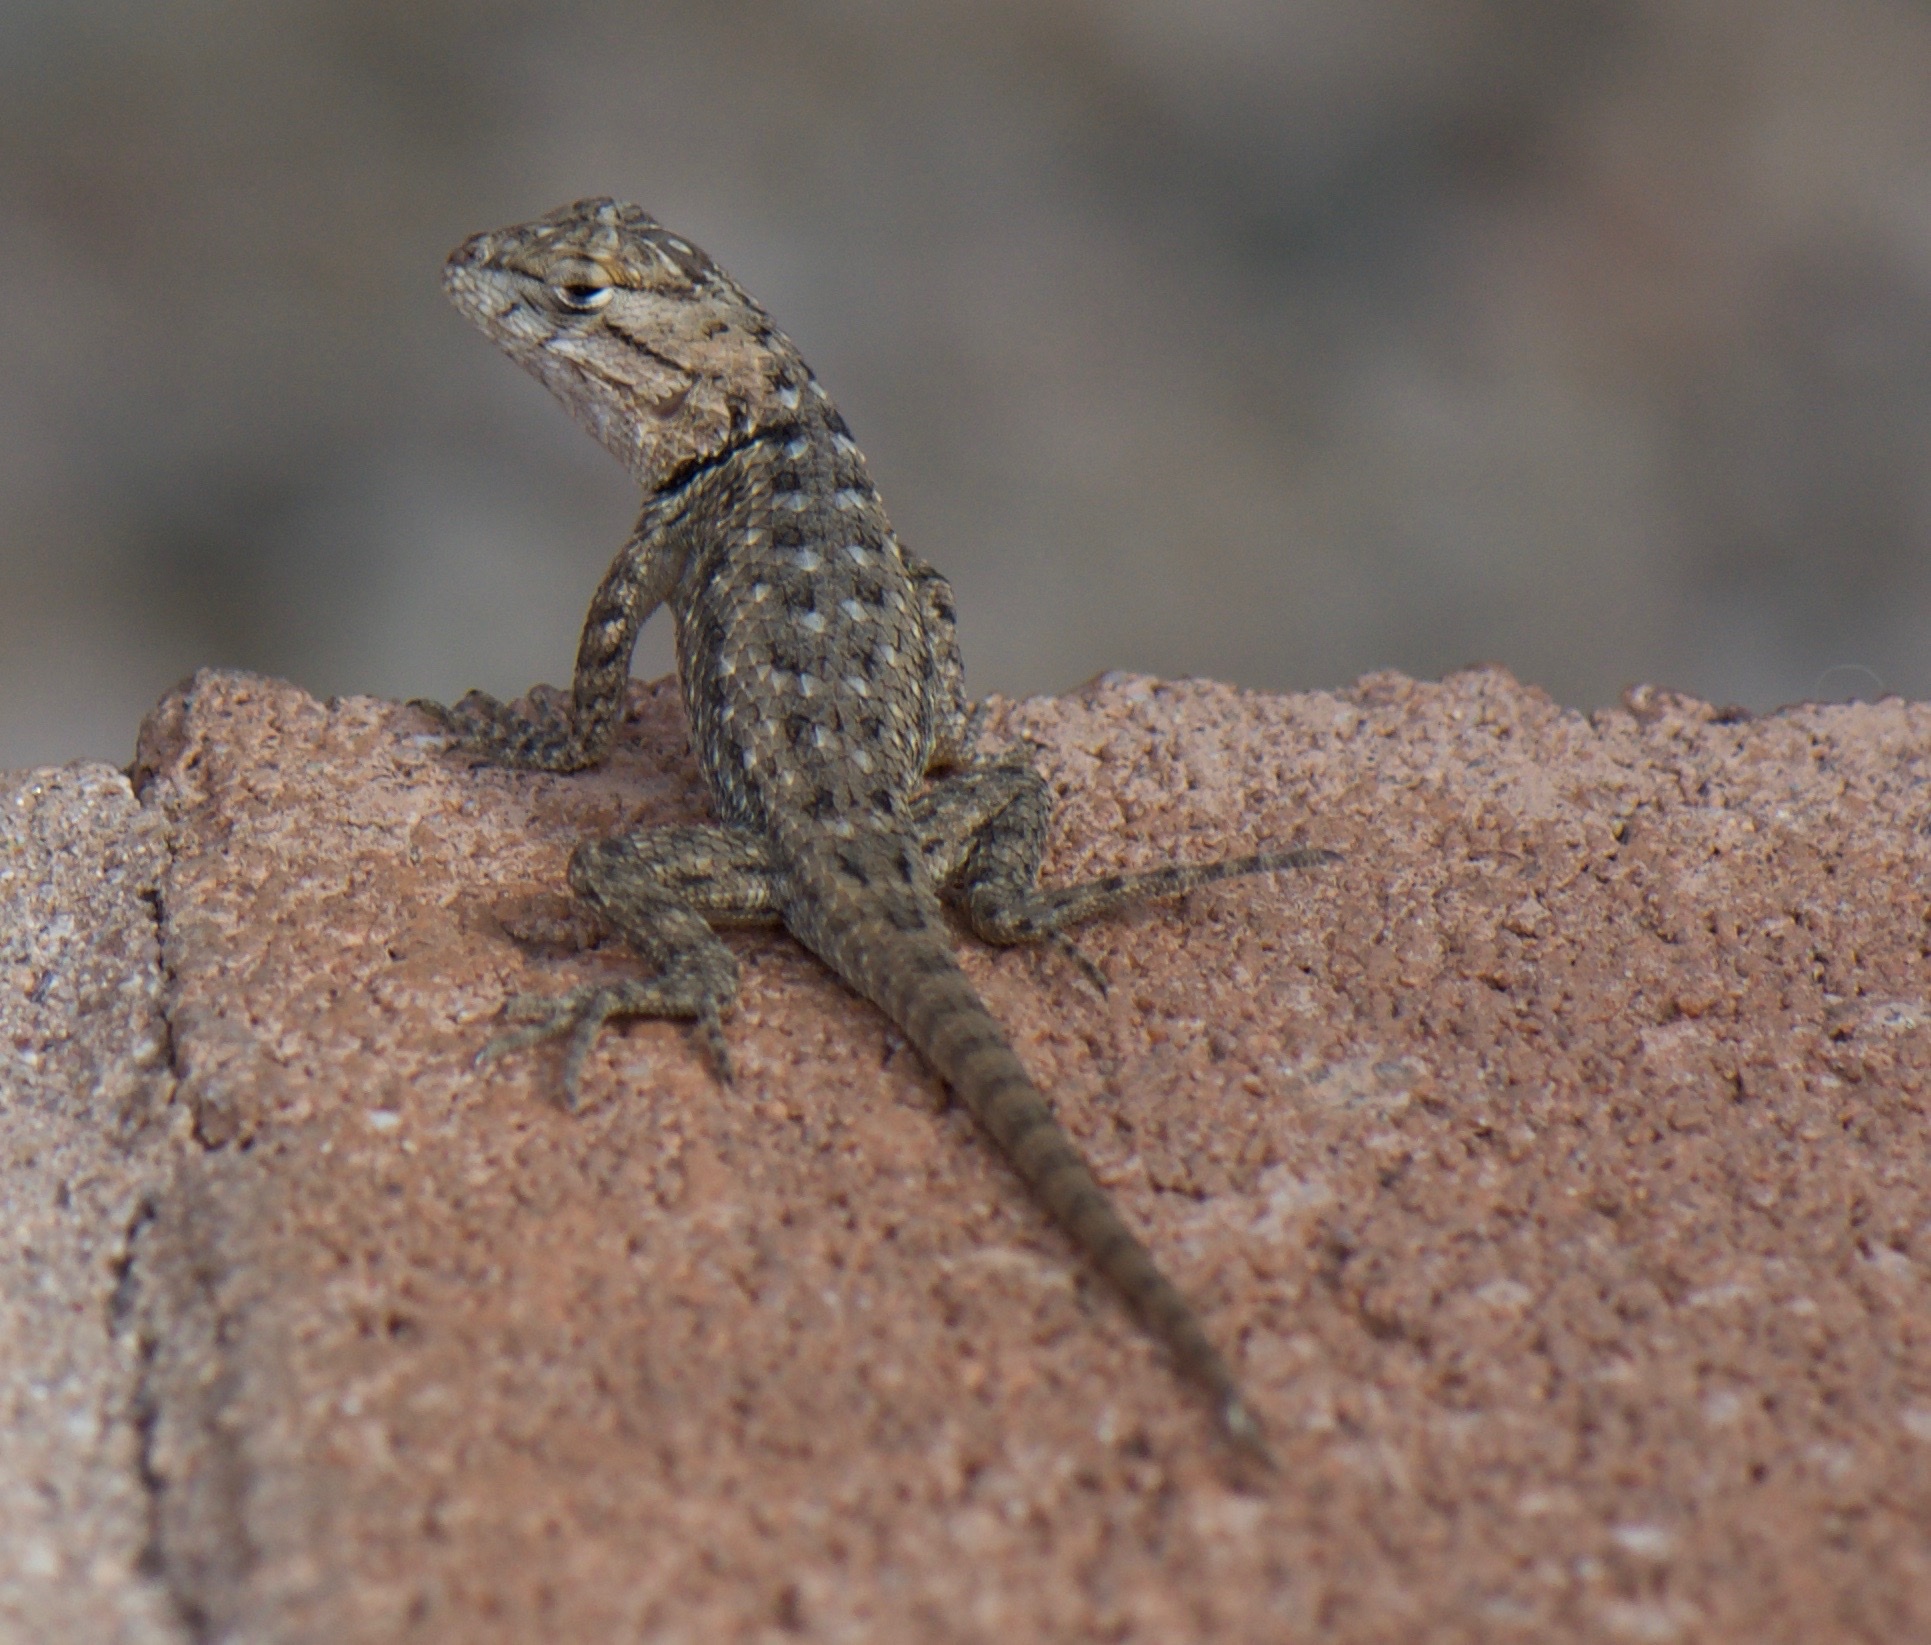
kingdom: Animalia
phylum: Chordata
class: Squamata
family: Phrynosomatidae
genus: Sceloporus
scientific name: Sceloporus magister
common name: Desert spiny lizard
